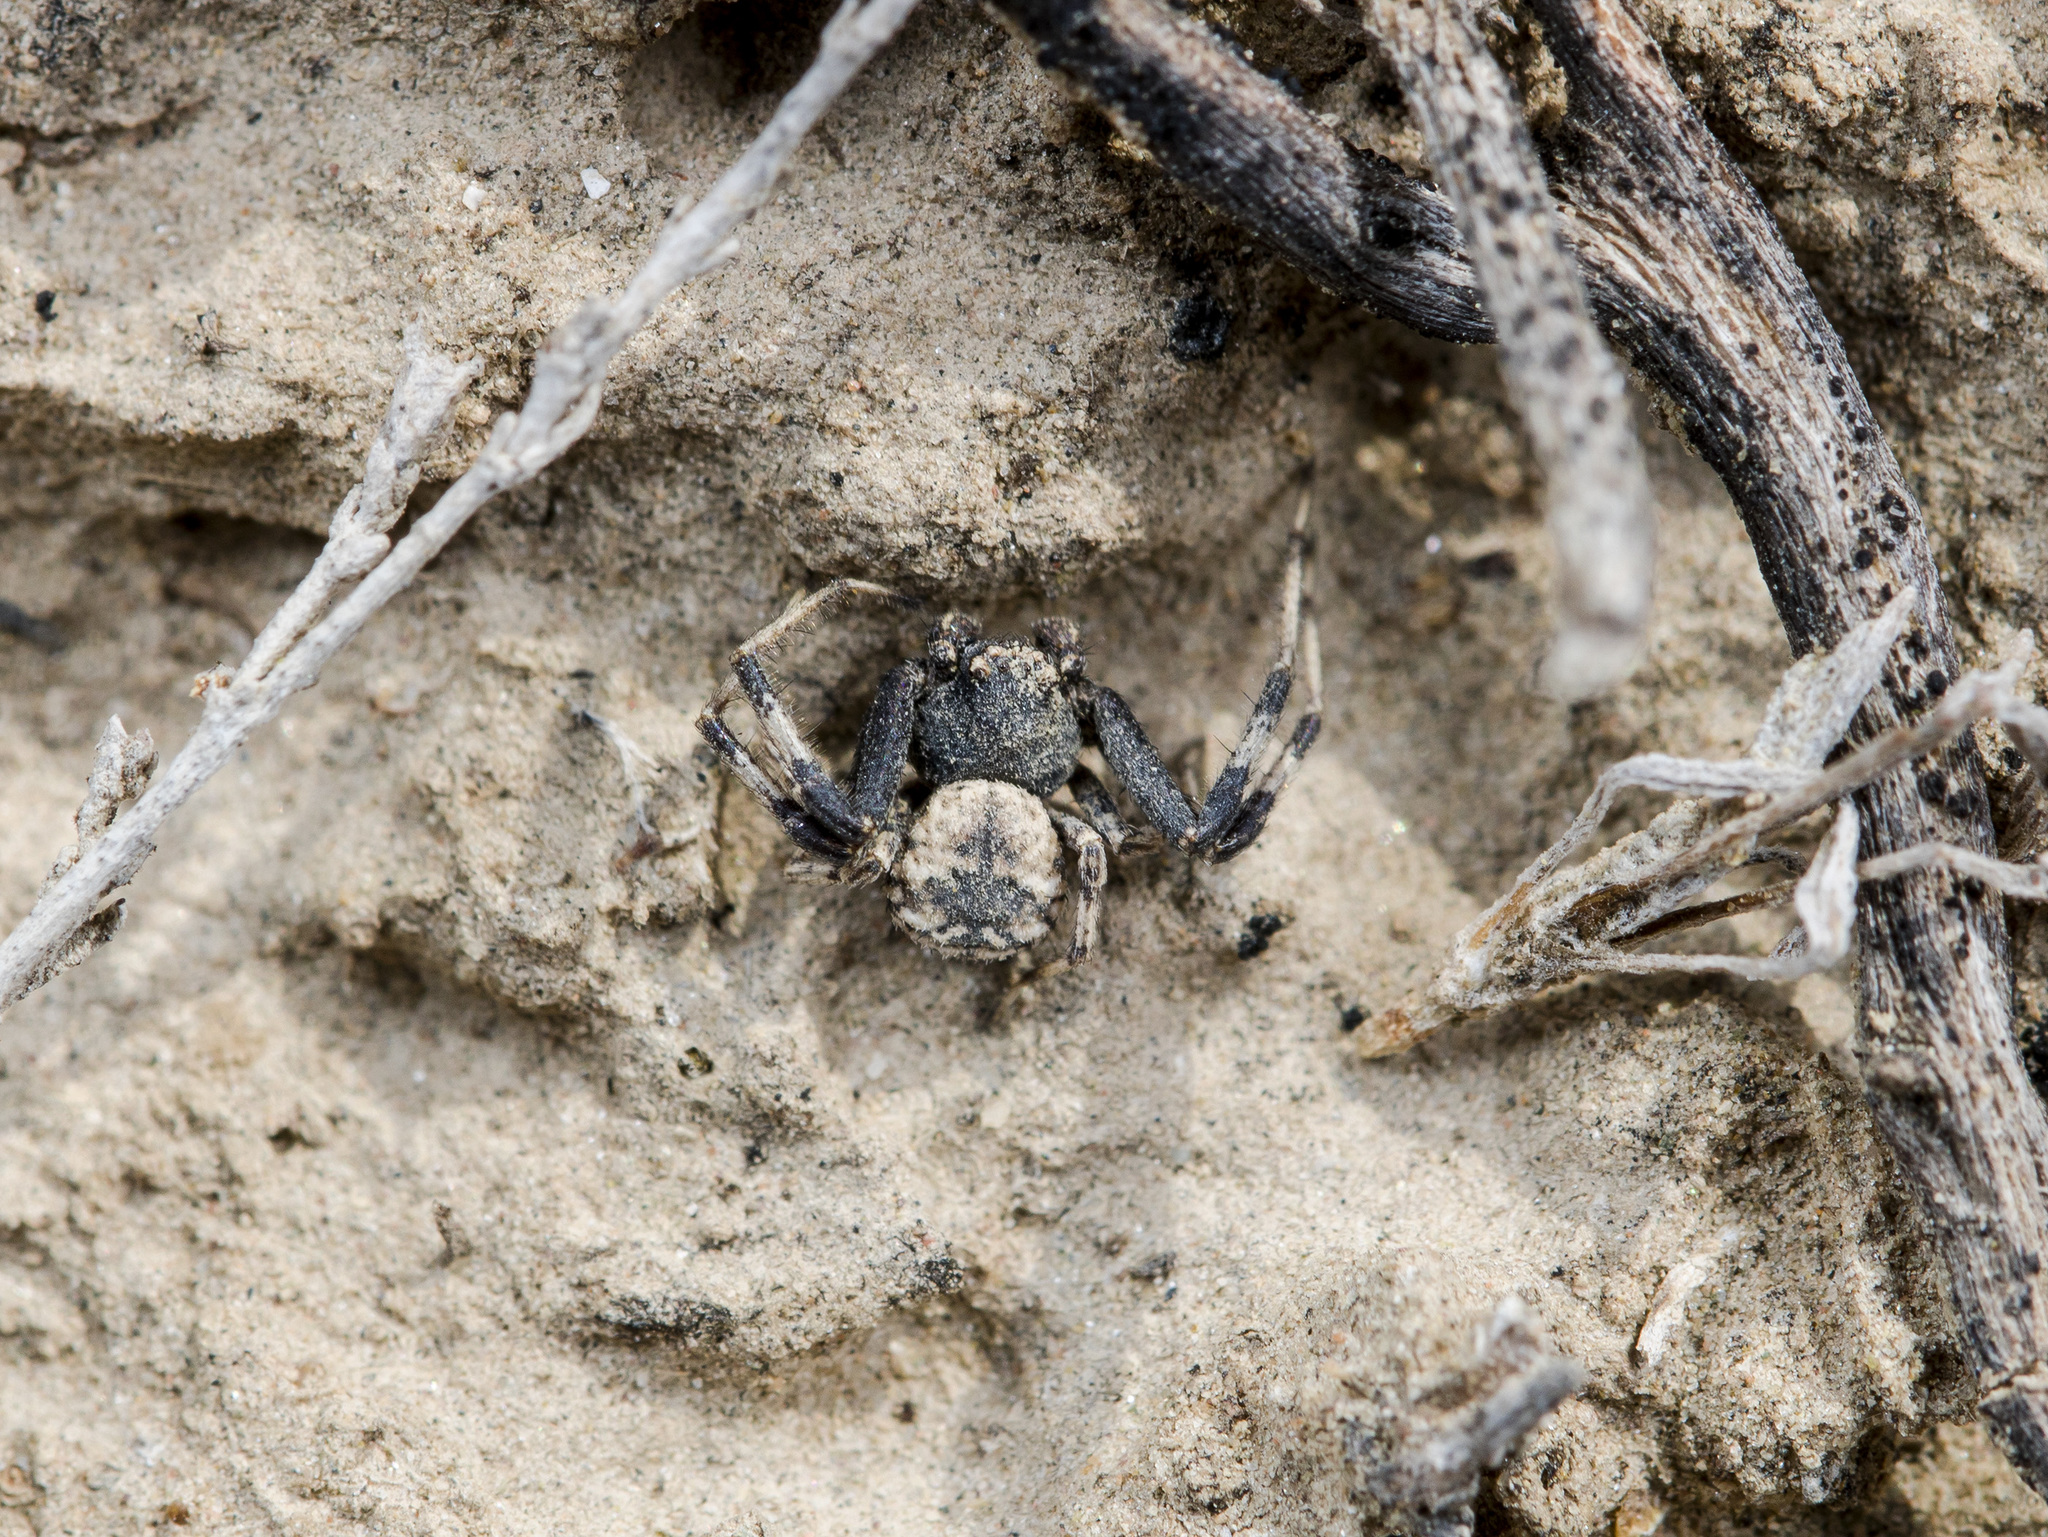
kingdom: Animalia
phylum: Arthropoda
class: Arachnida
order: Araneae
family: Thomisidae
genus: Ozyptila
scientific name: Ozyptila tuberosa
